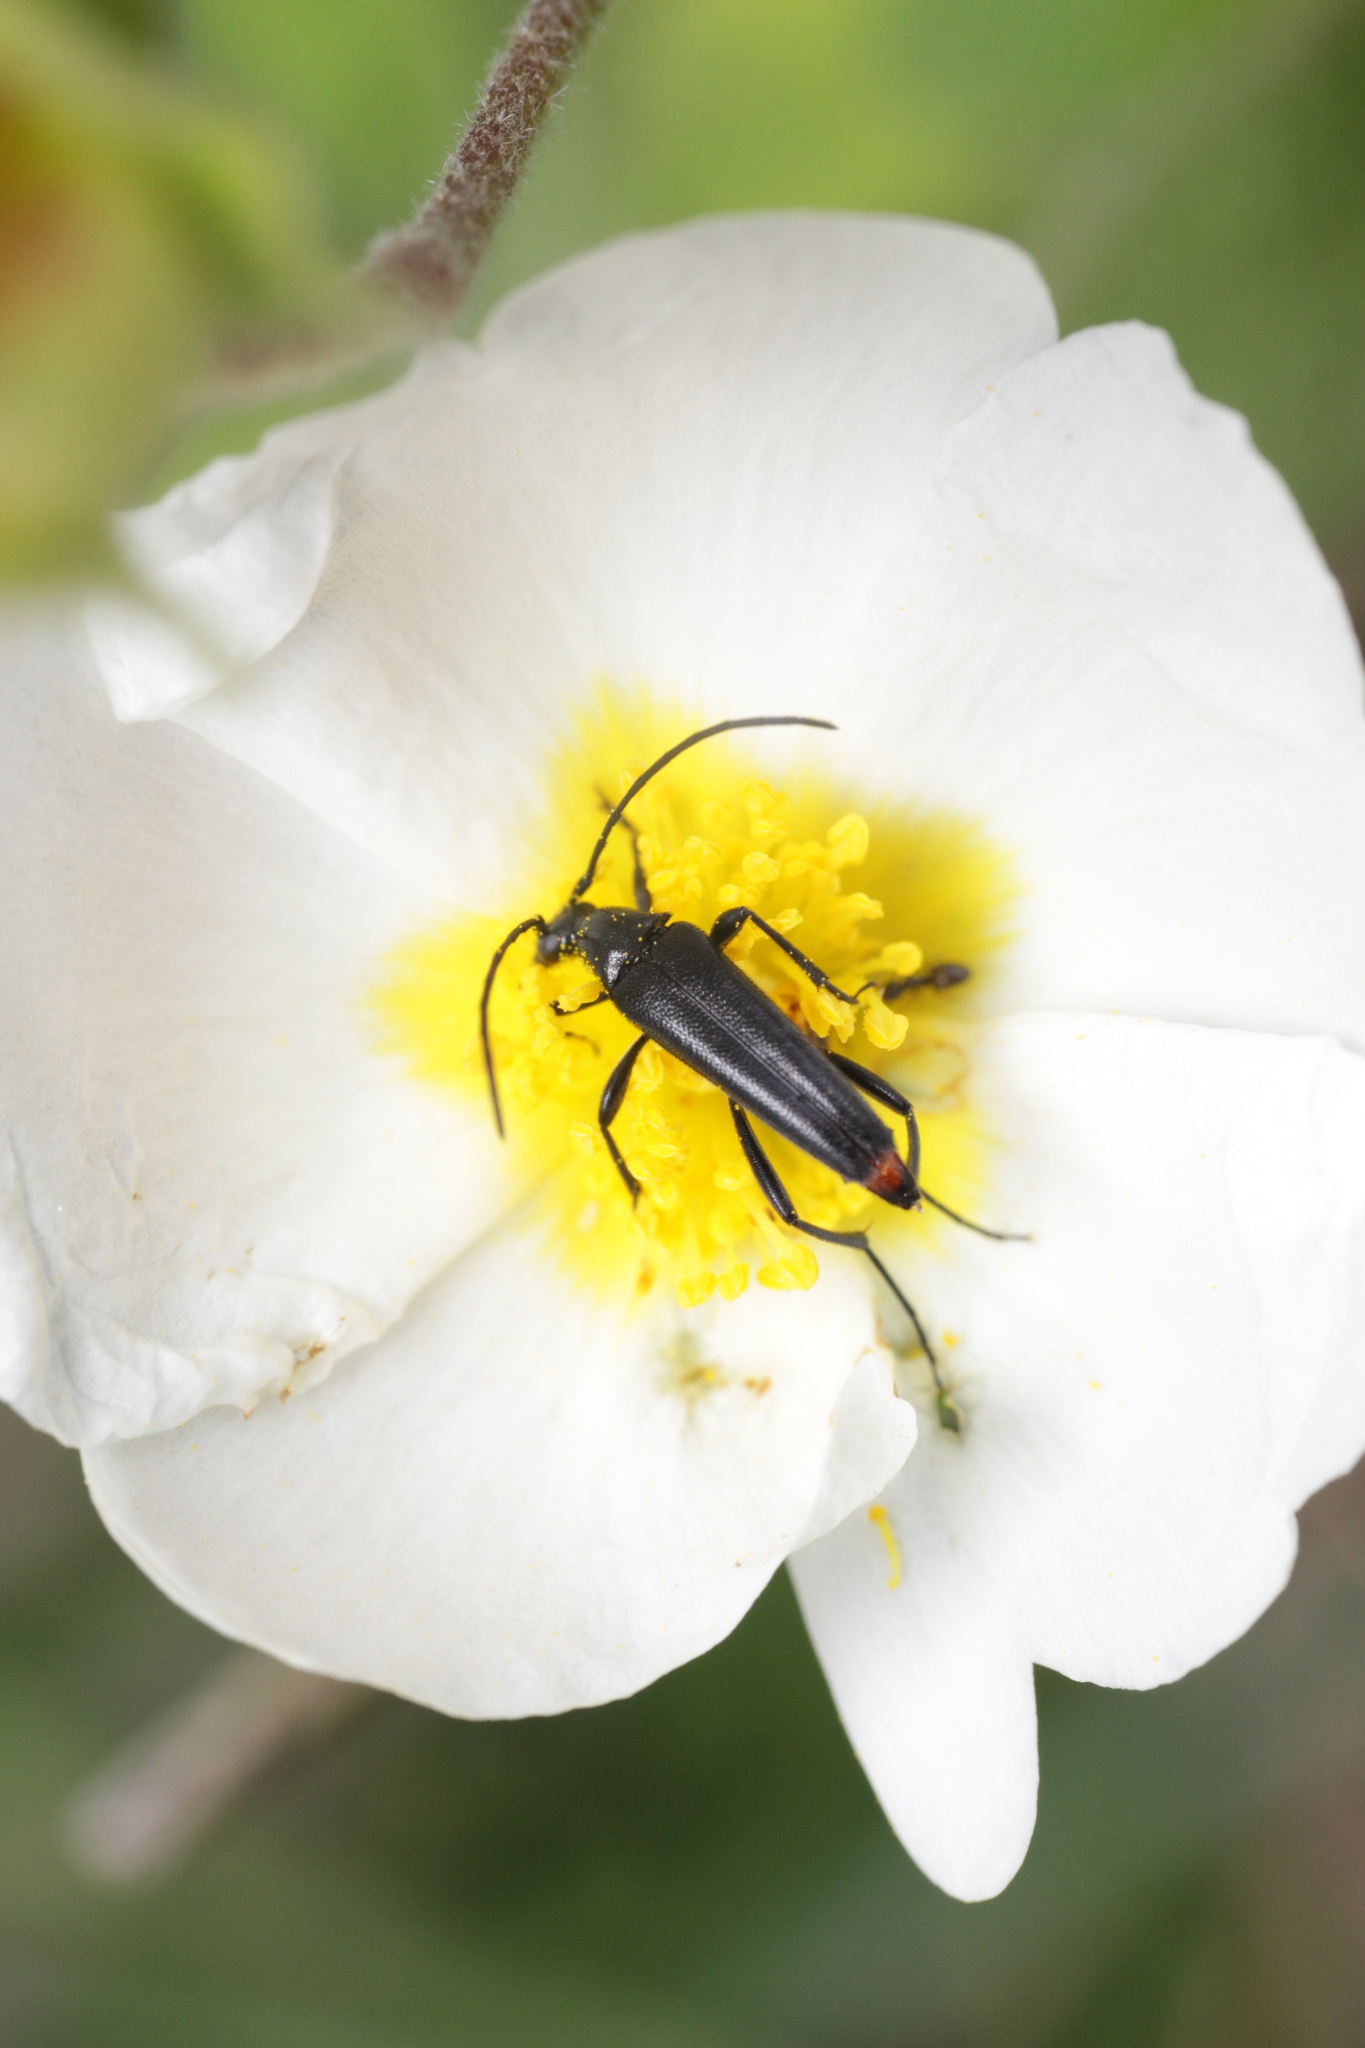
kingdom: Animalia
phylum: Arthropoda
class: Insecta
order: Coleoptera
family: Cerambycidae
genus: Stenurella
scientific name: Stenurella nigra
